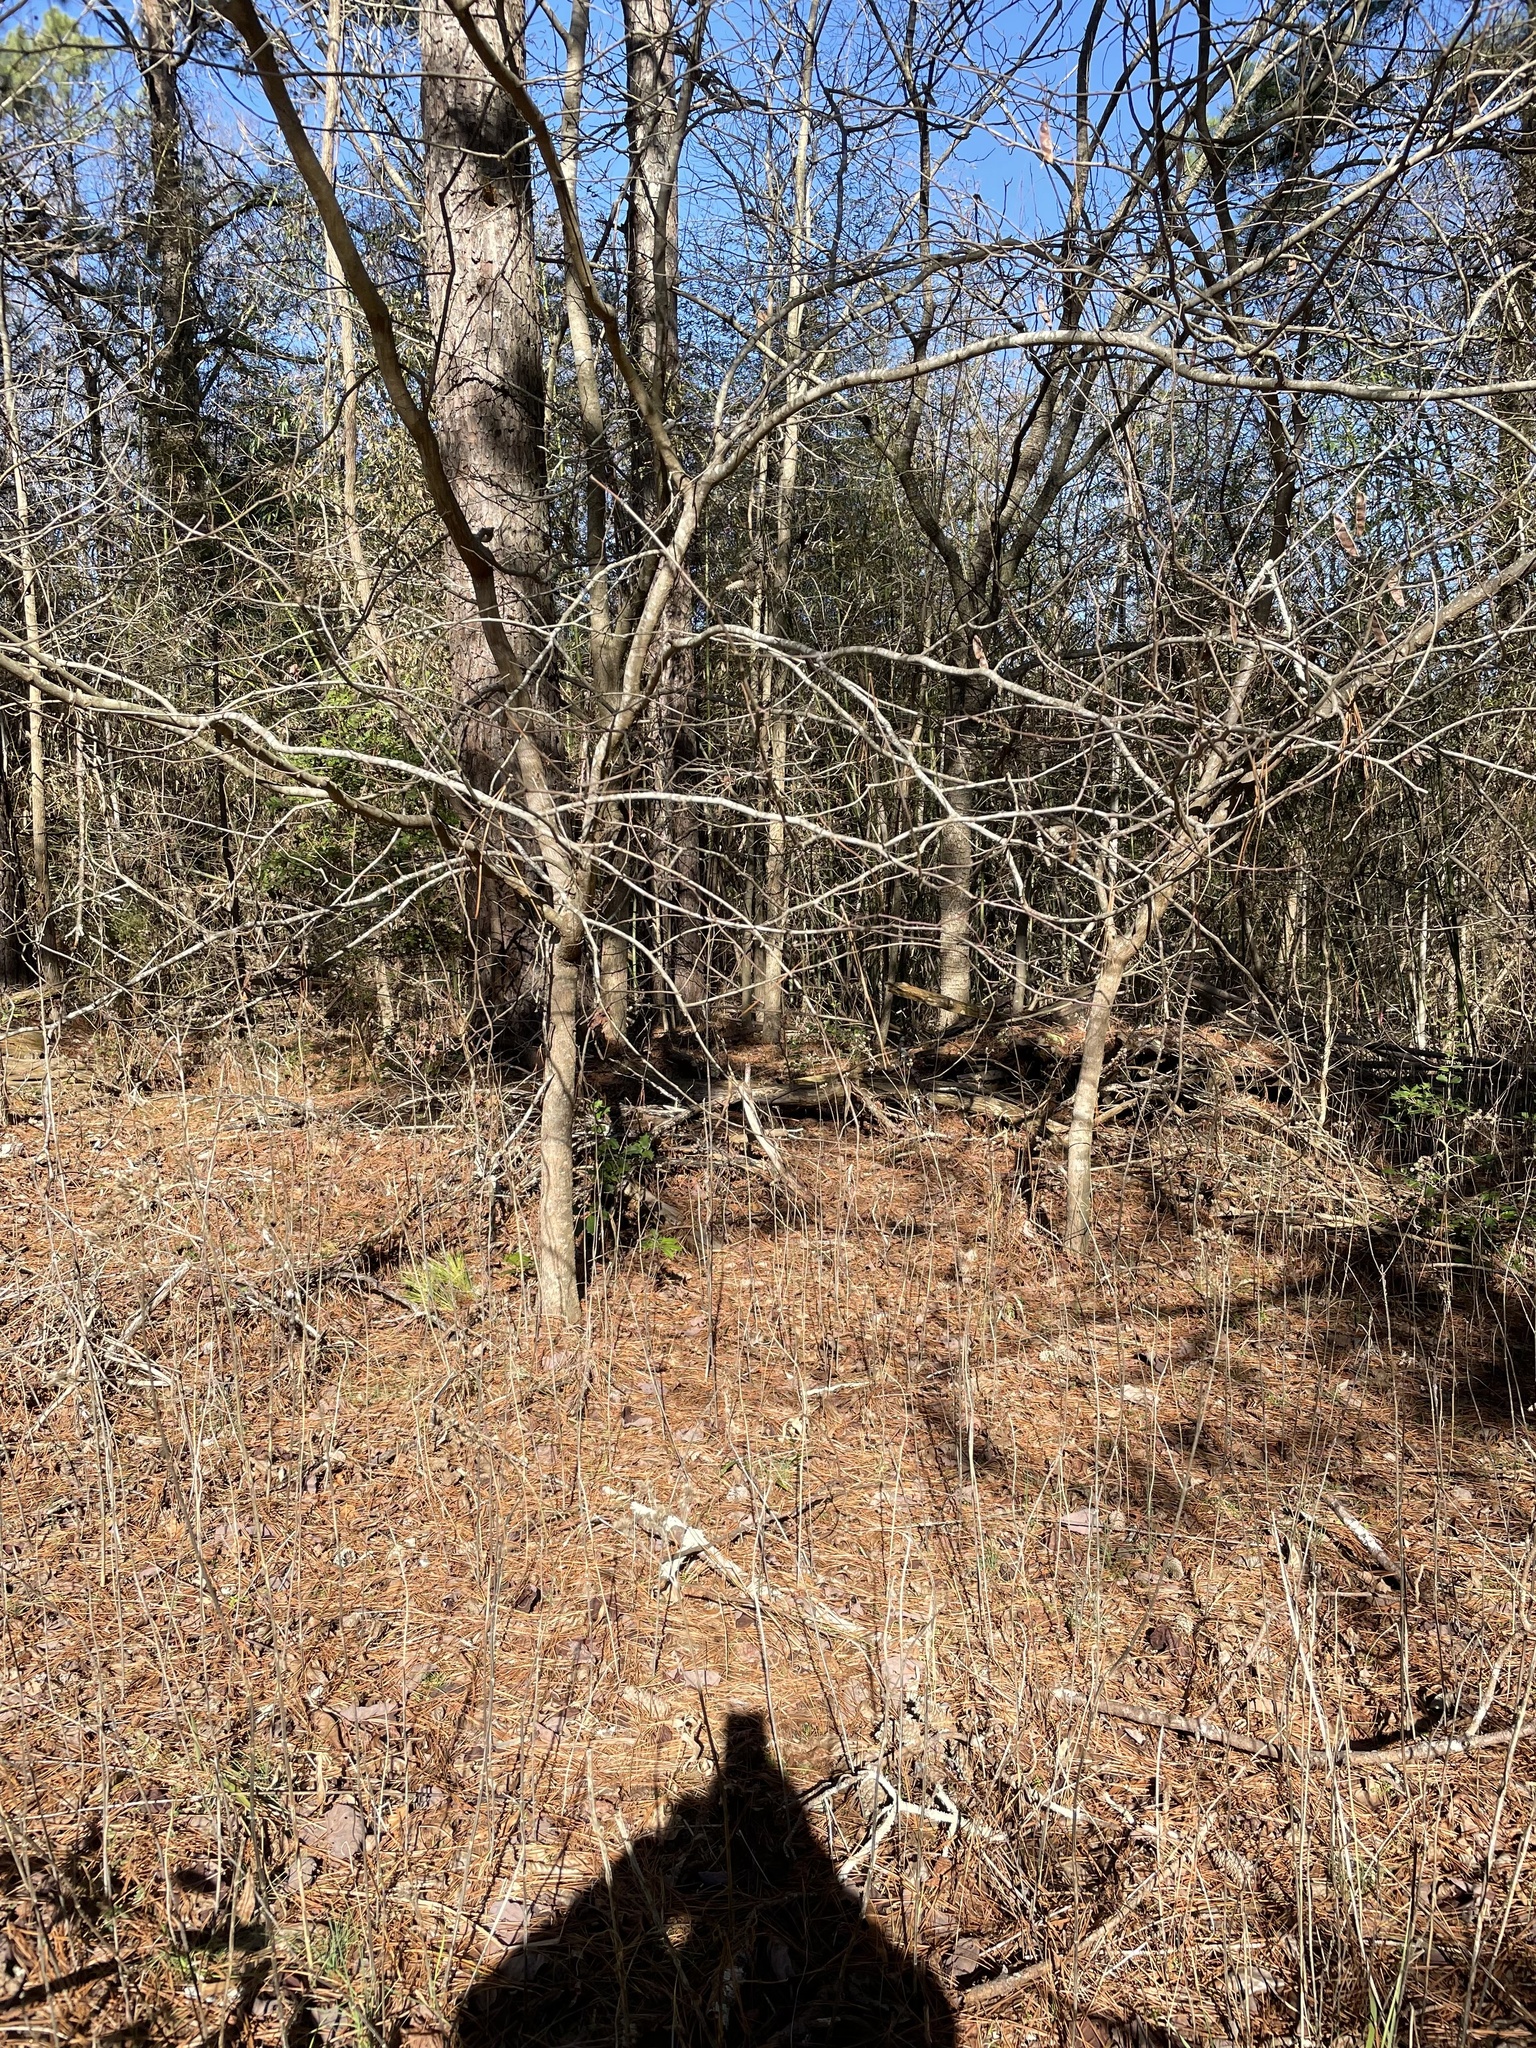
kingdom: Plantae
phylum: Tracheophyta
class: Magnoliopsida
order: Fabales
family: Fabaceae
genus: Cercis
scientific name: Cercis canadensis
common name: Eastern redbud
